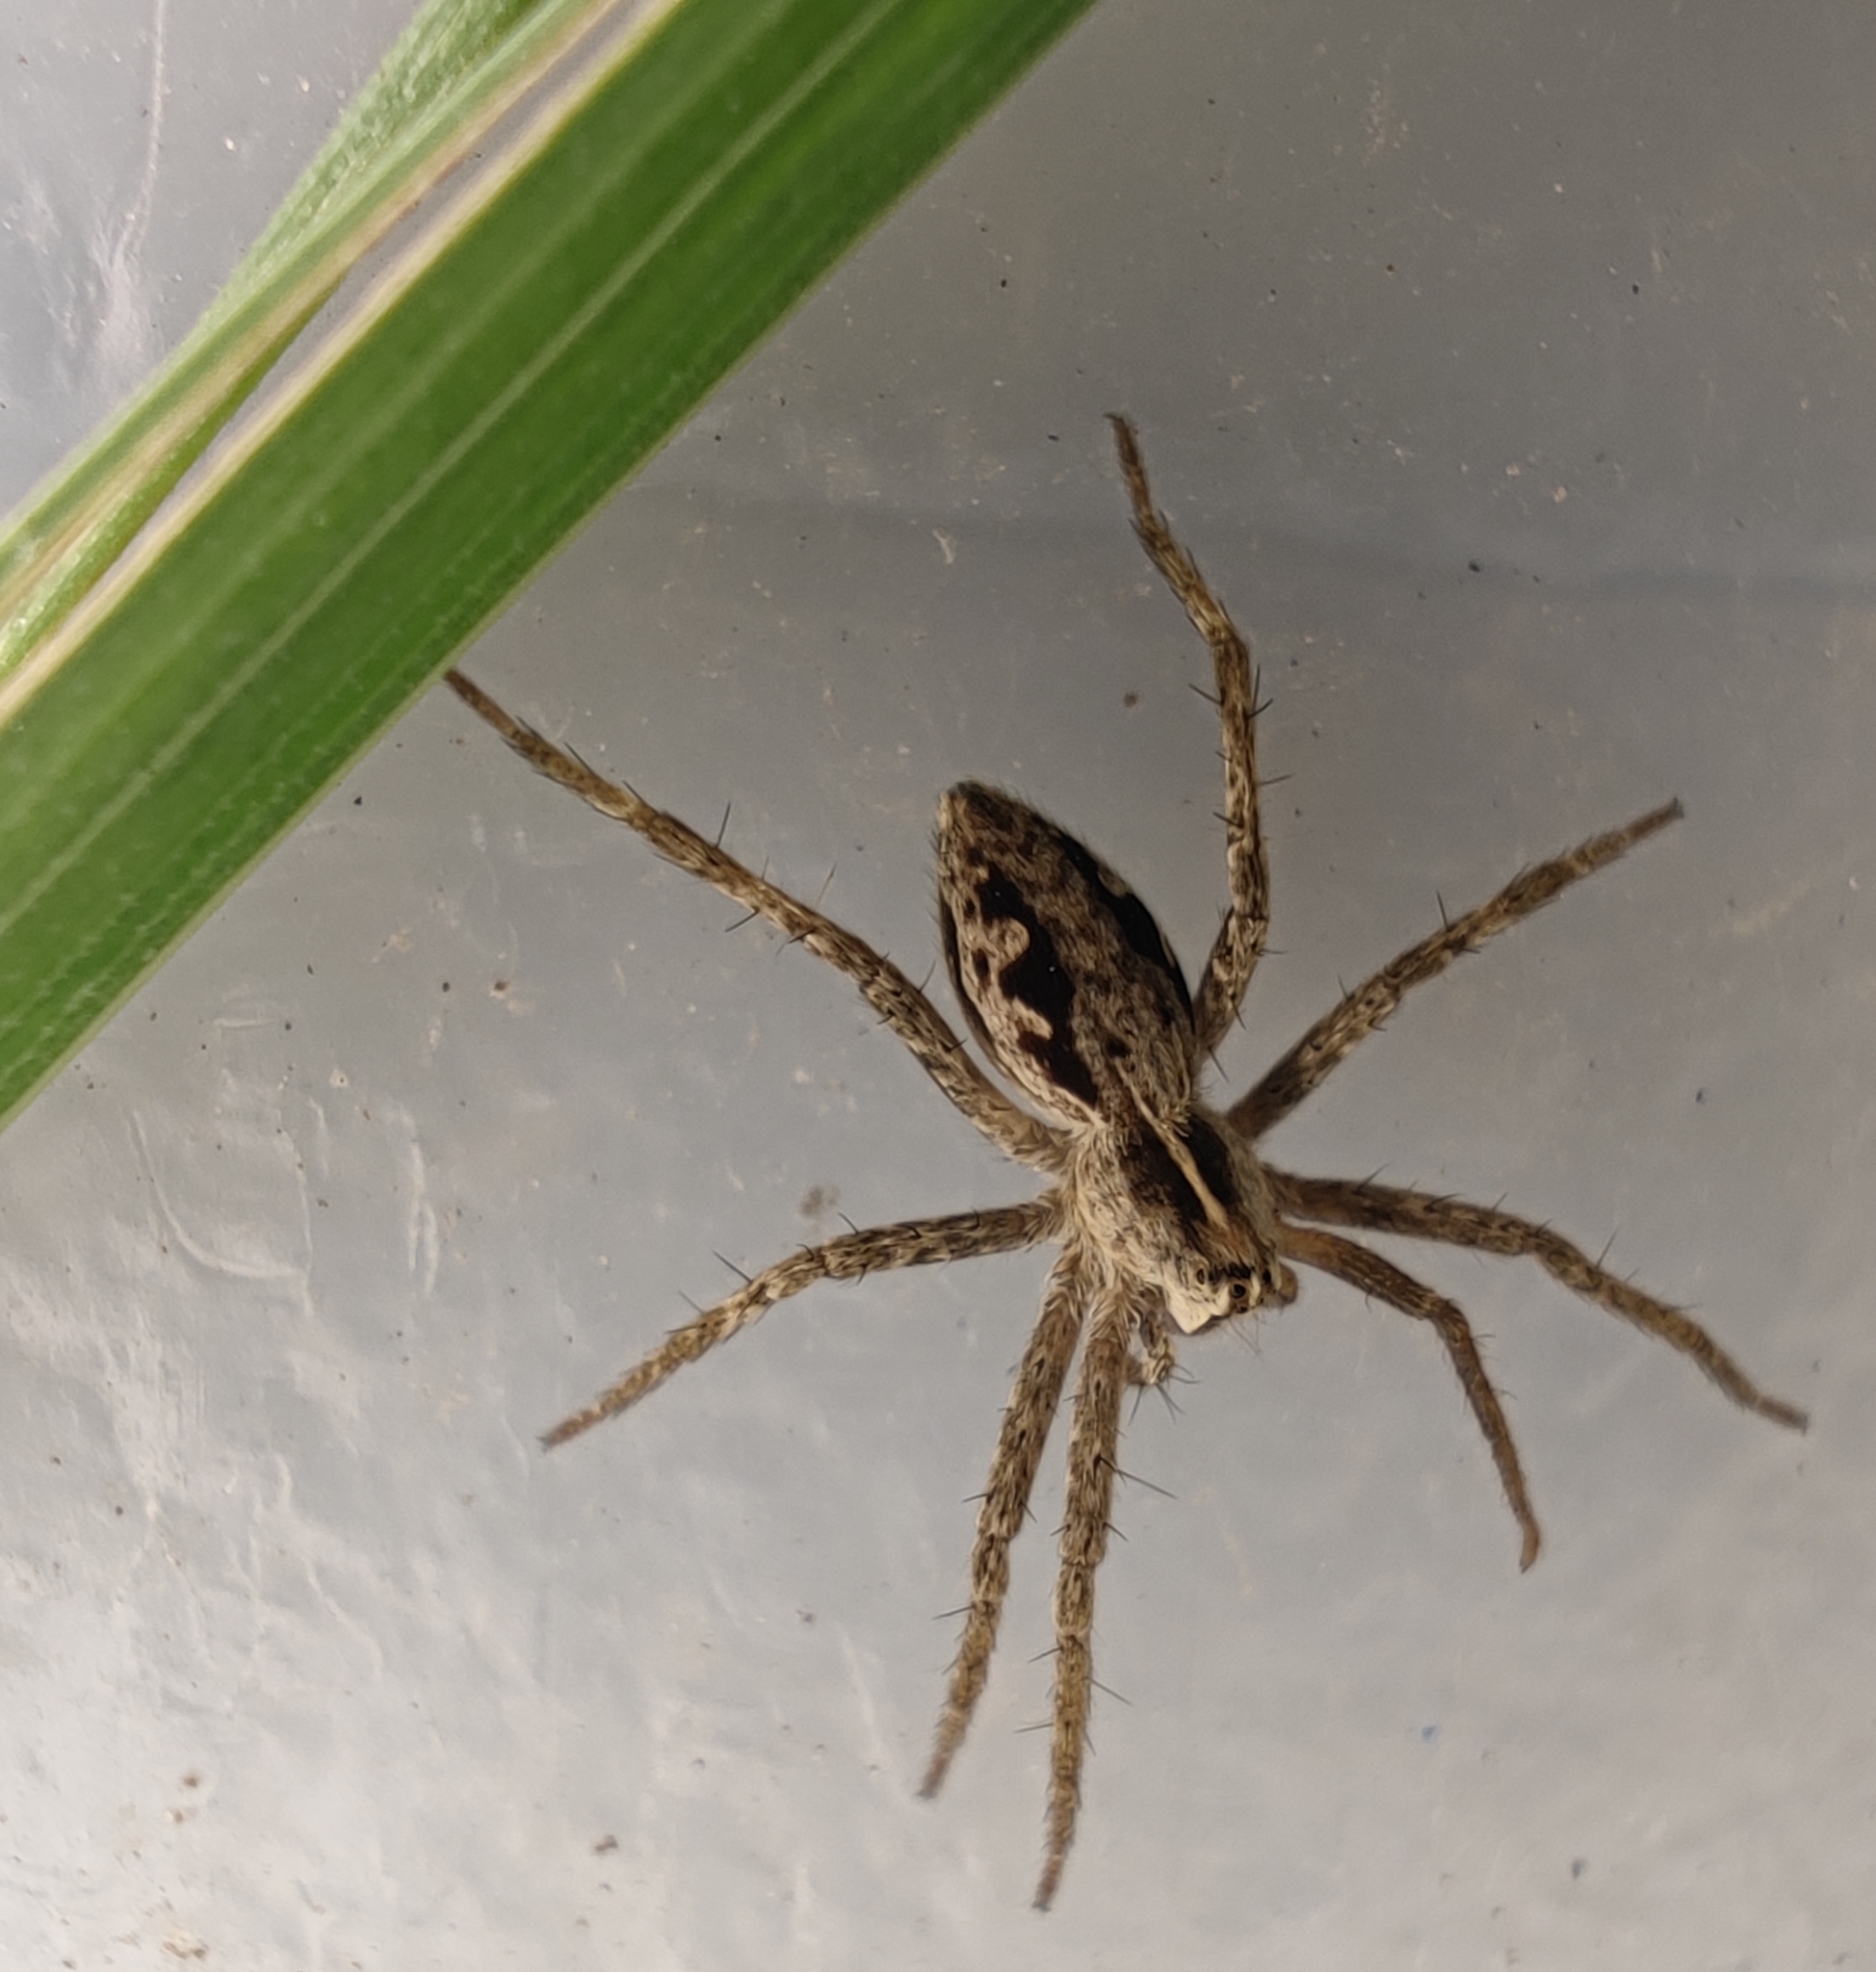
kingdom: Animalia
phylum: Arthropoda
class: Arachnida
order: Araneae
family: Pisauridae
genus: Pisaura
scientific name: Pisaura mirabilis
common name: Tent spider
